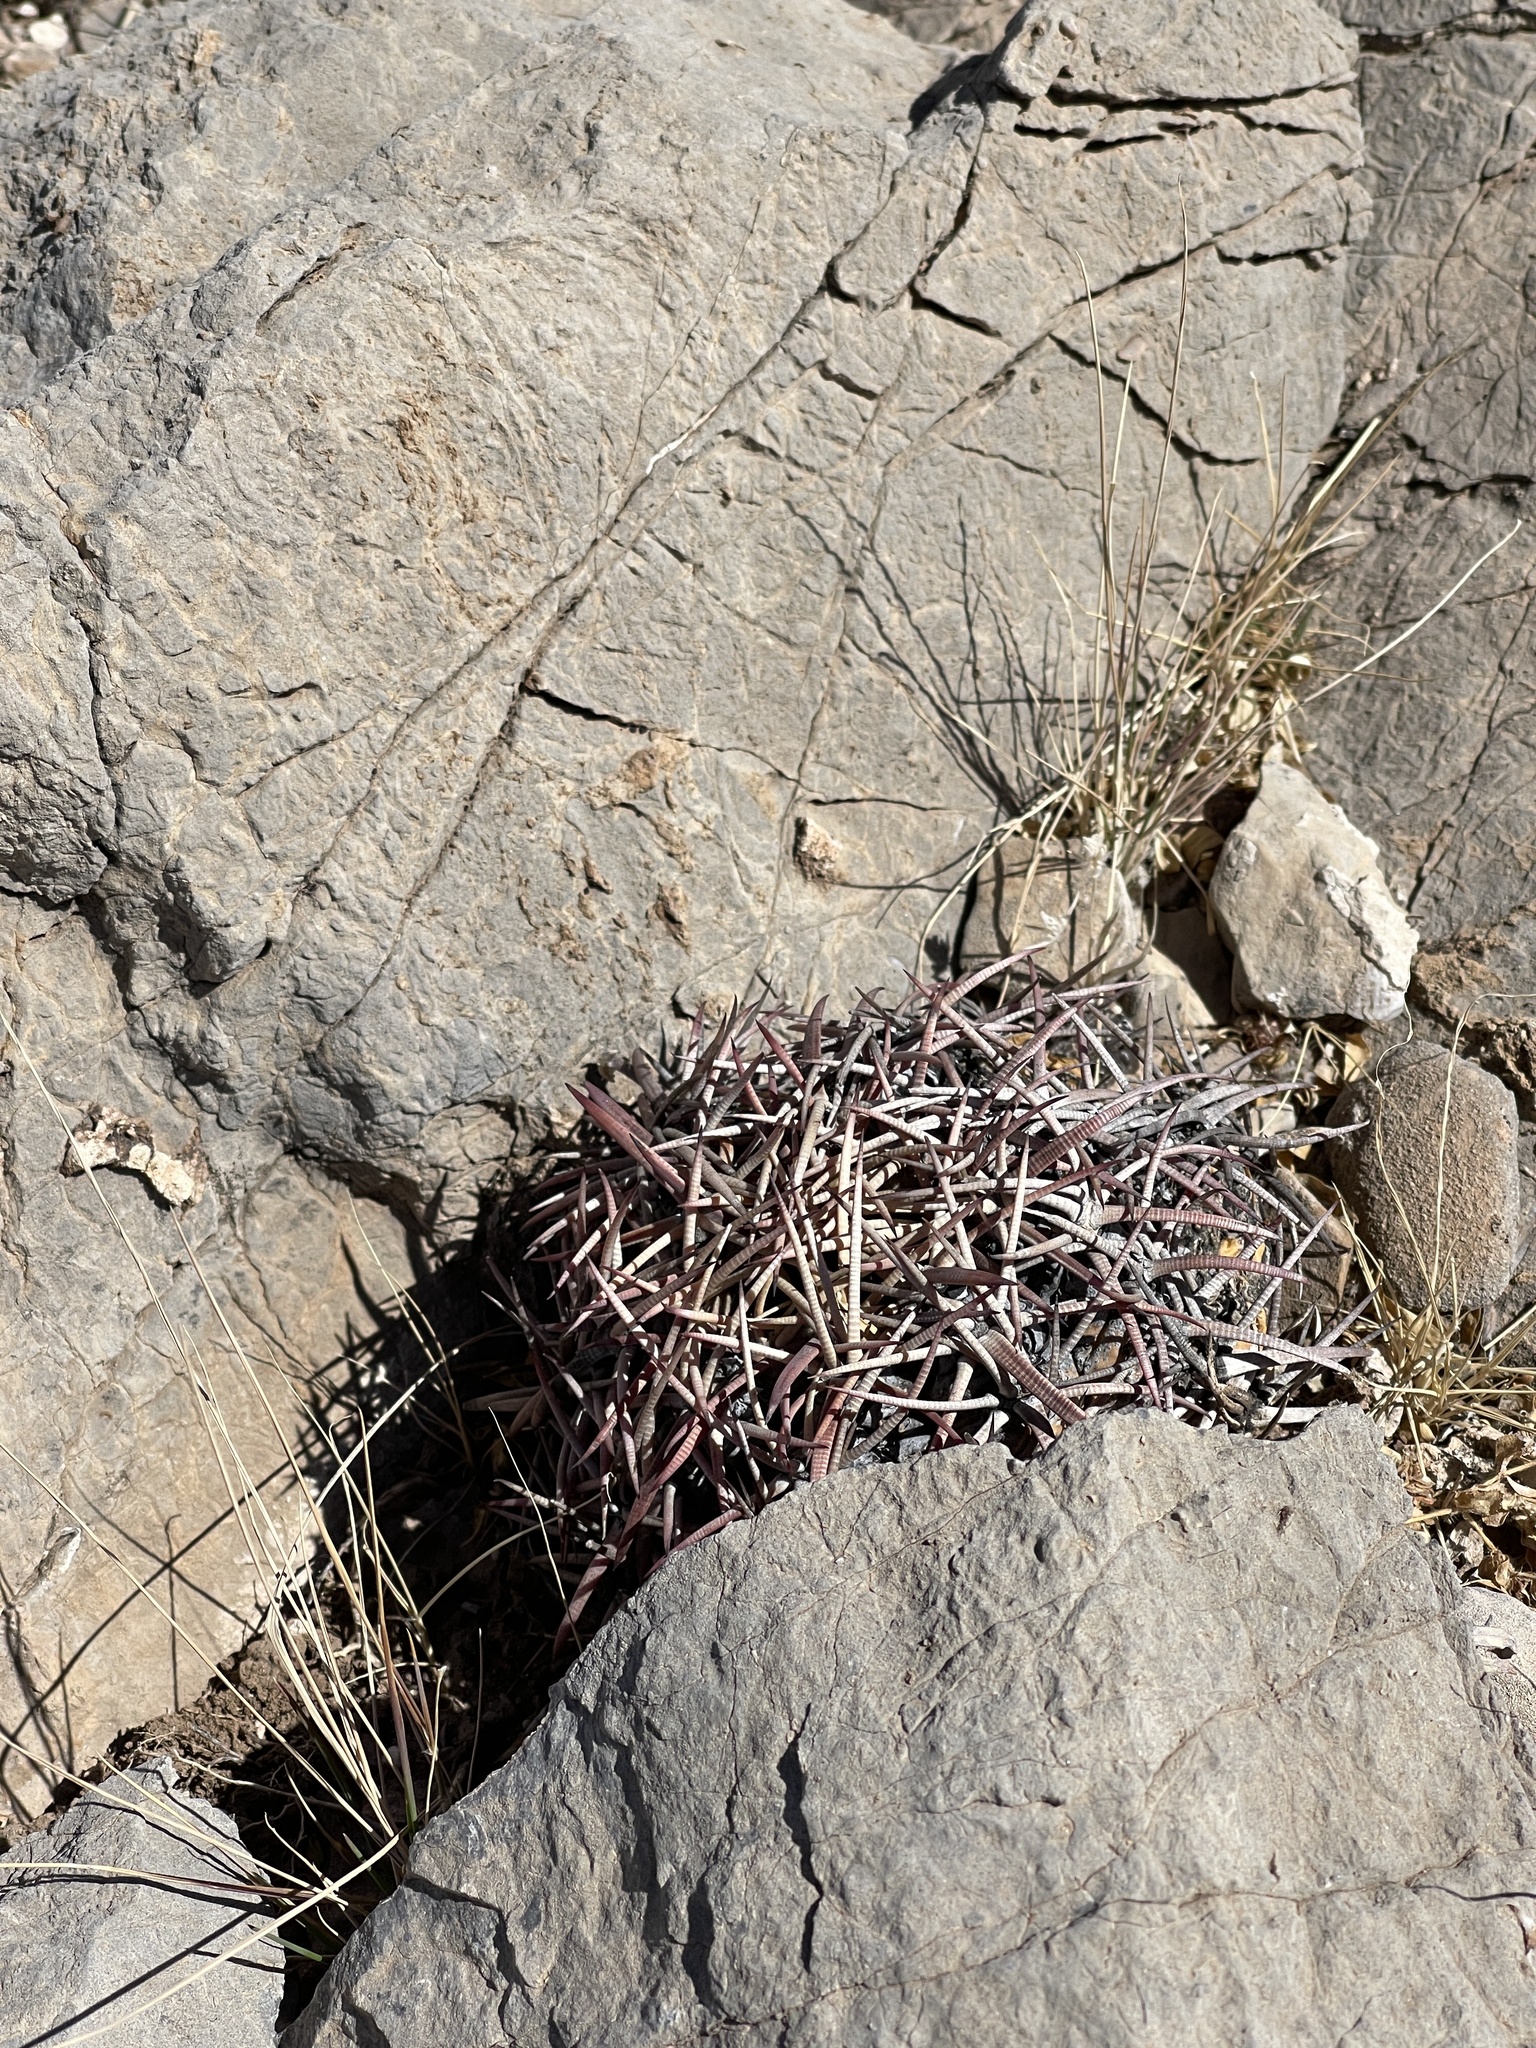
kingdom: Plantae
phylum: Tracheophyta
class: Magnoliopsida
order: Caryophyllales
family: Cactaceae
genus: Echinocactus
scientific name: Echinocactus horizonthalonius
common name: Devilshead
